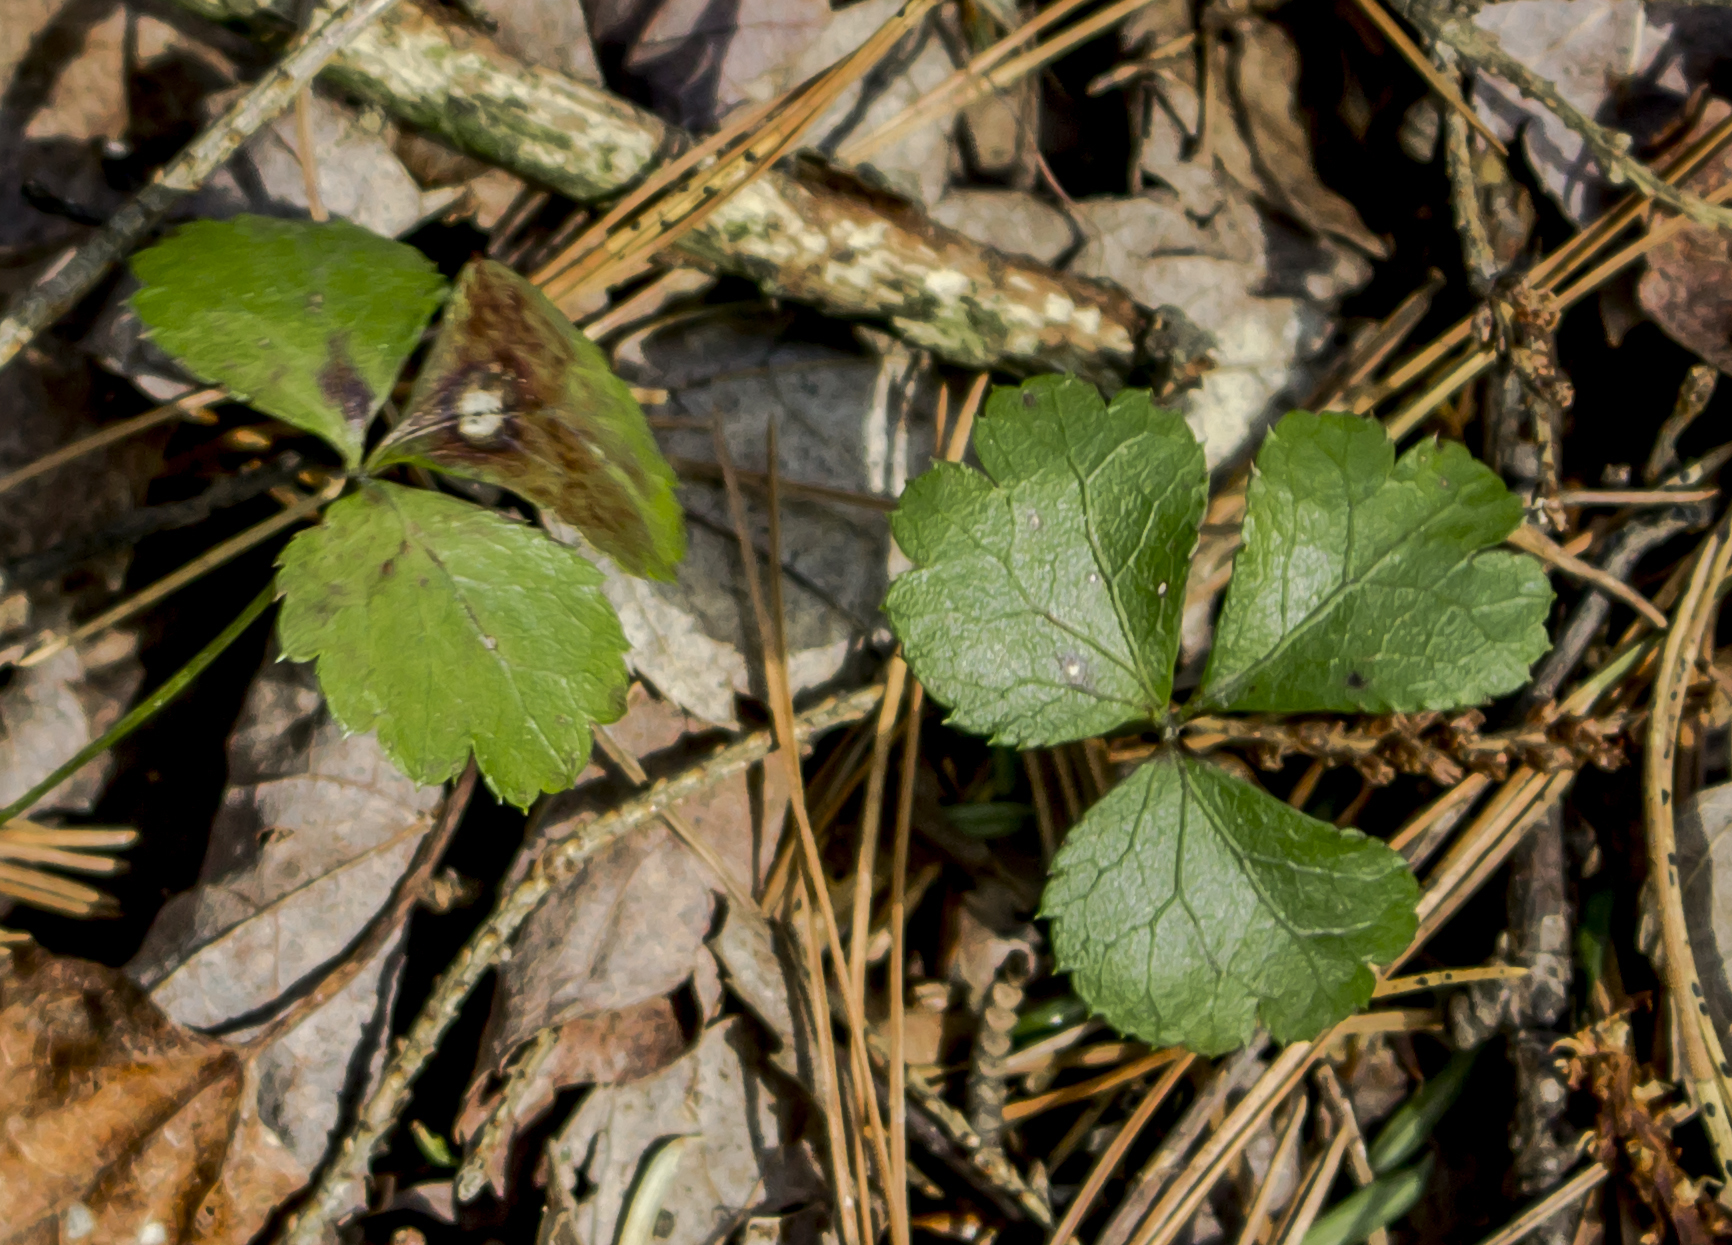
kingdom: Plantae
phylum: Tracheophyta
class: Magnoliopsida
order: Ranunculales
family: Ranunculaceae
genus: Coptis
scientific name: Coptis trifolia
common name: Canker-root
